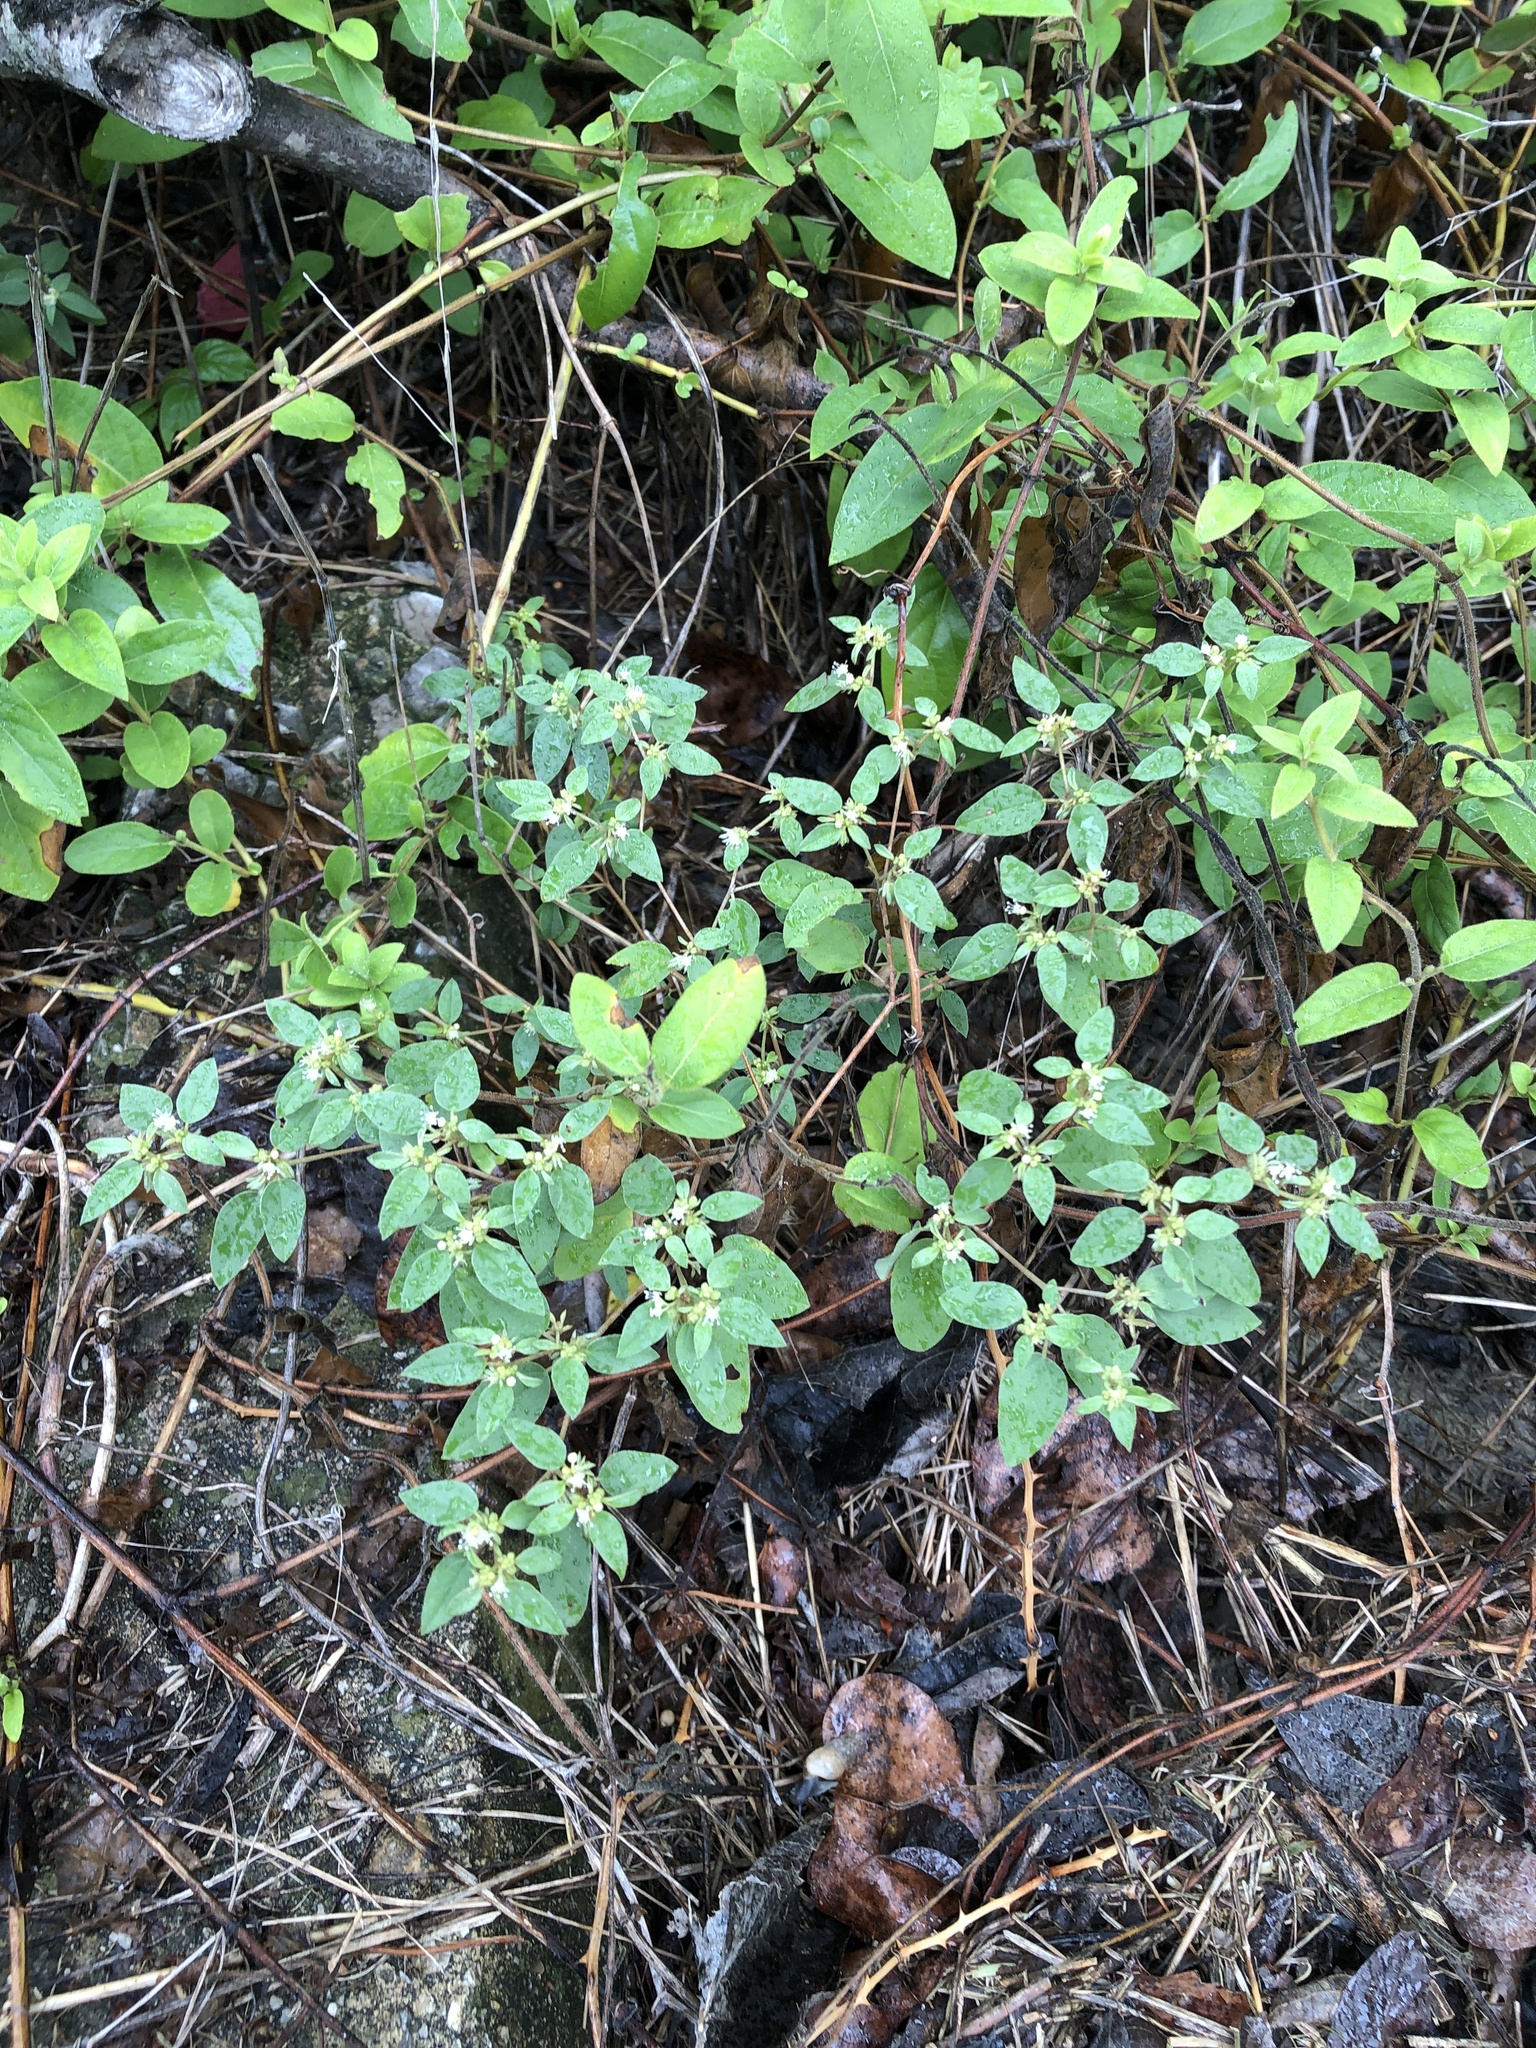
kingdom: Plantae
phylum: Tracheophyta
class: Magnoliopsida
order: Malpighiales
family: Euphorbiaceae
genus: Croton
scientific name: Croton monanthogynus
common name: One-seed croton
